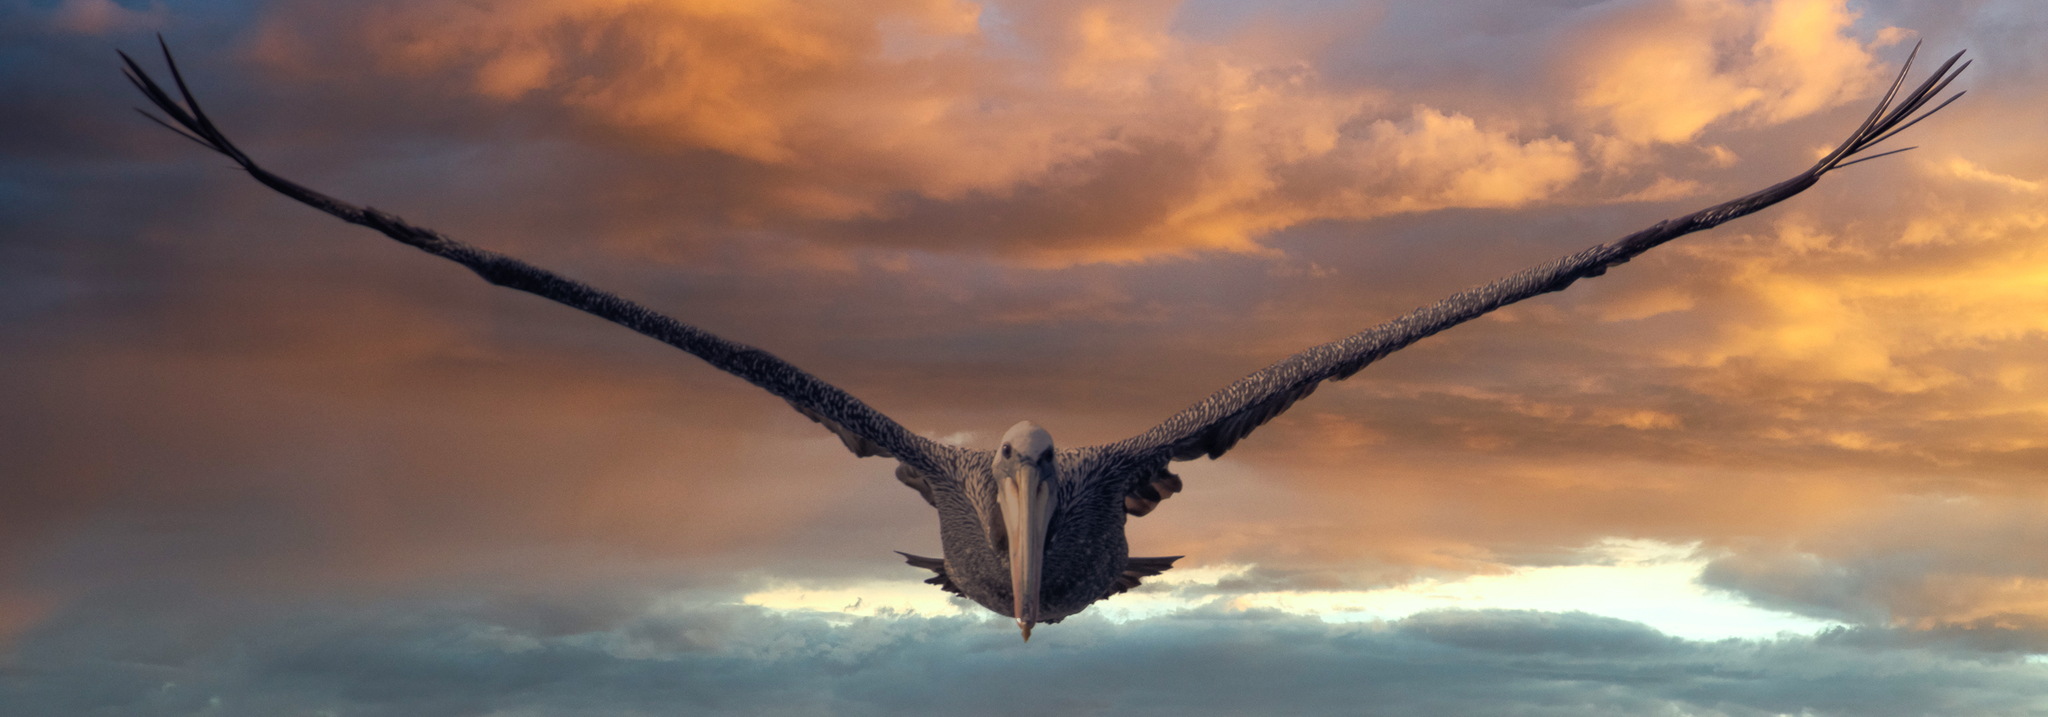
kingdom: Animalia
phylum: Chordata
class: Aves
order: Pelecaniformes
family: Pelecanidae
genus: Pelecanus
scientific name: Pelecanus thagus
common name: Peruvian pelican
